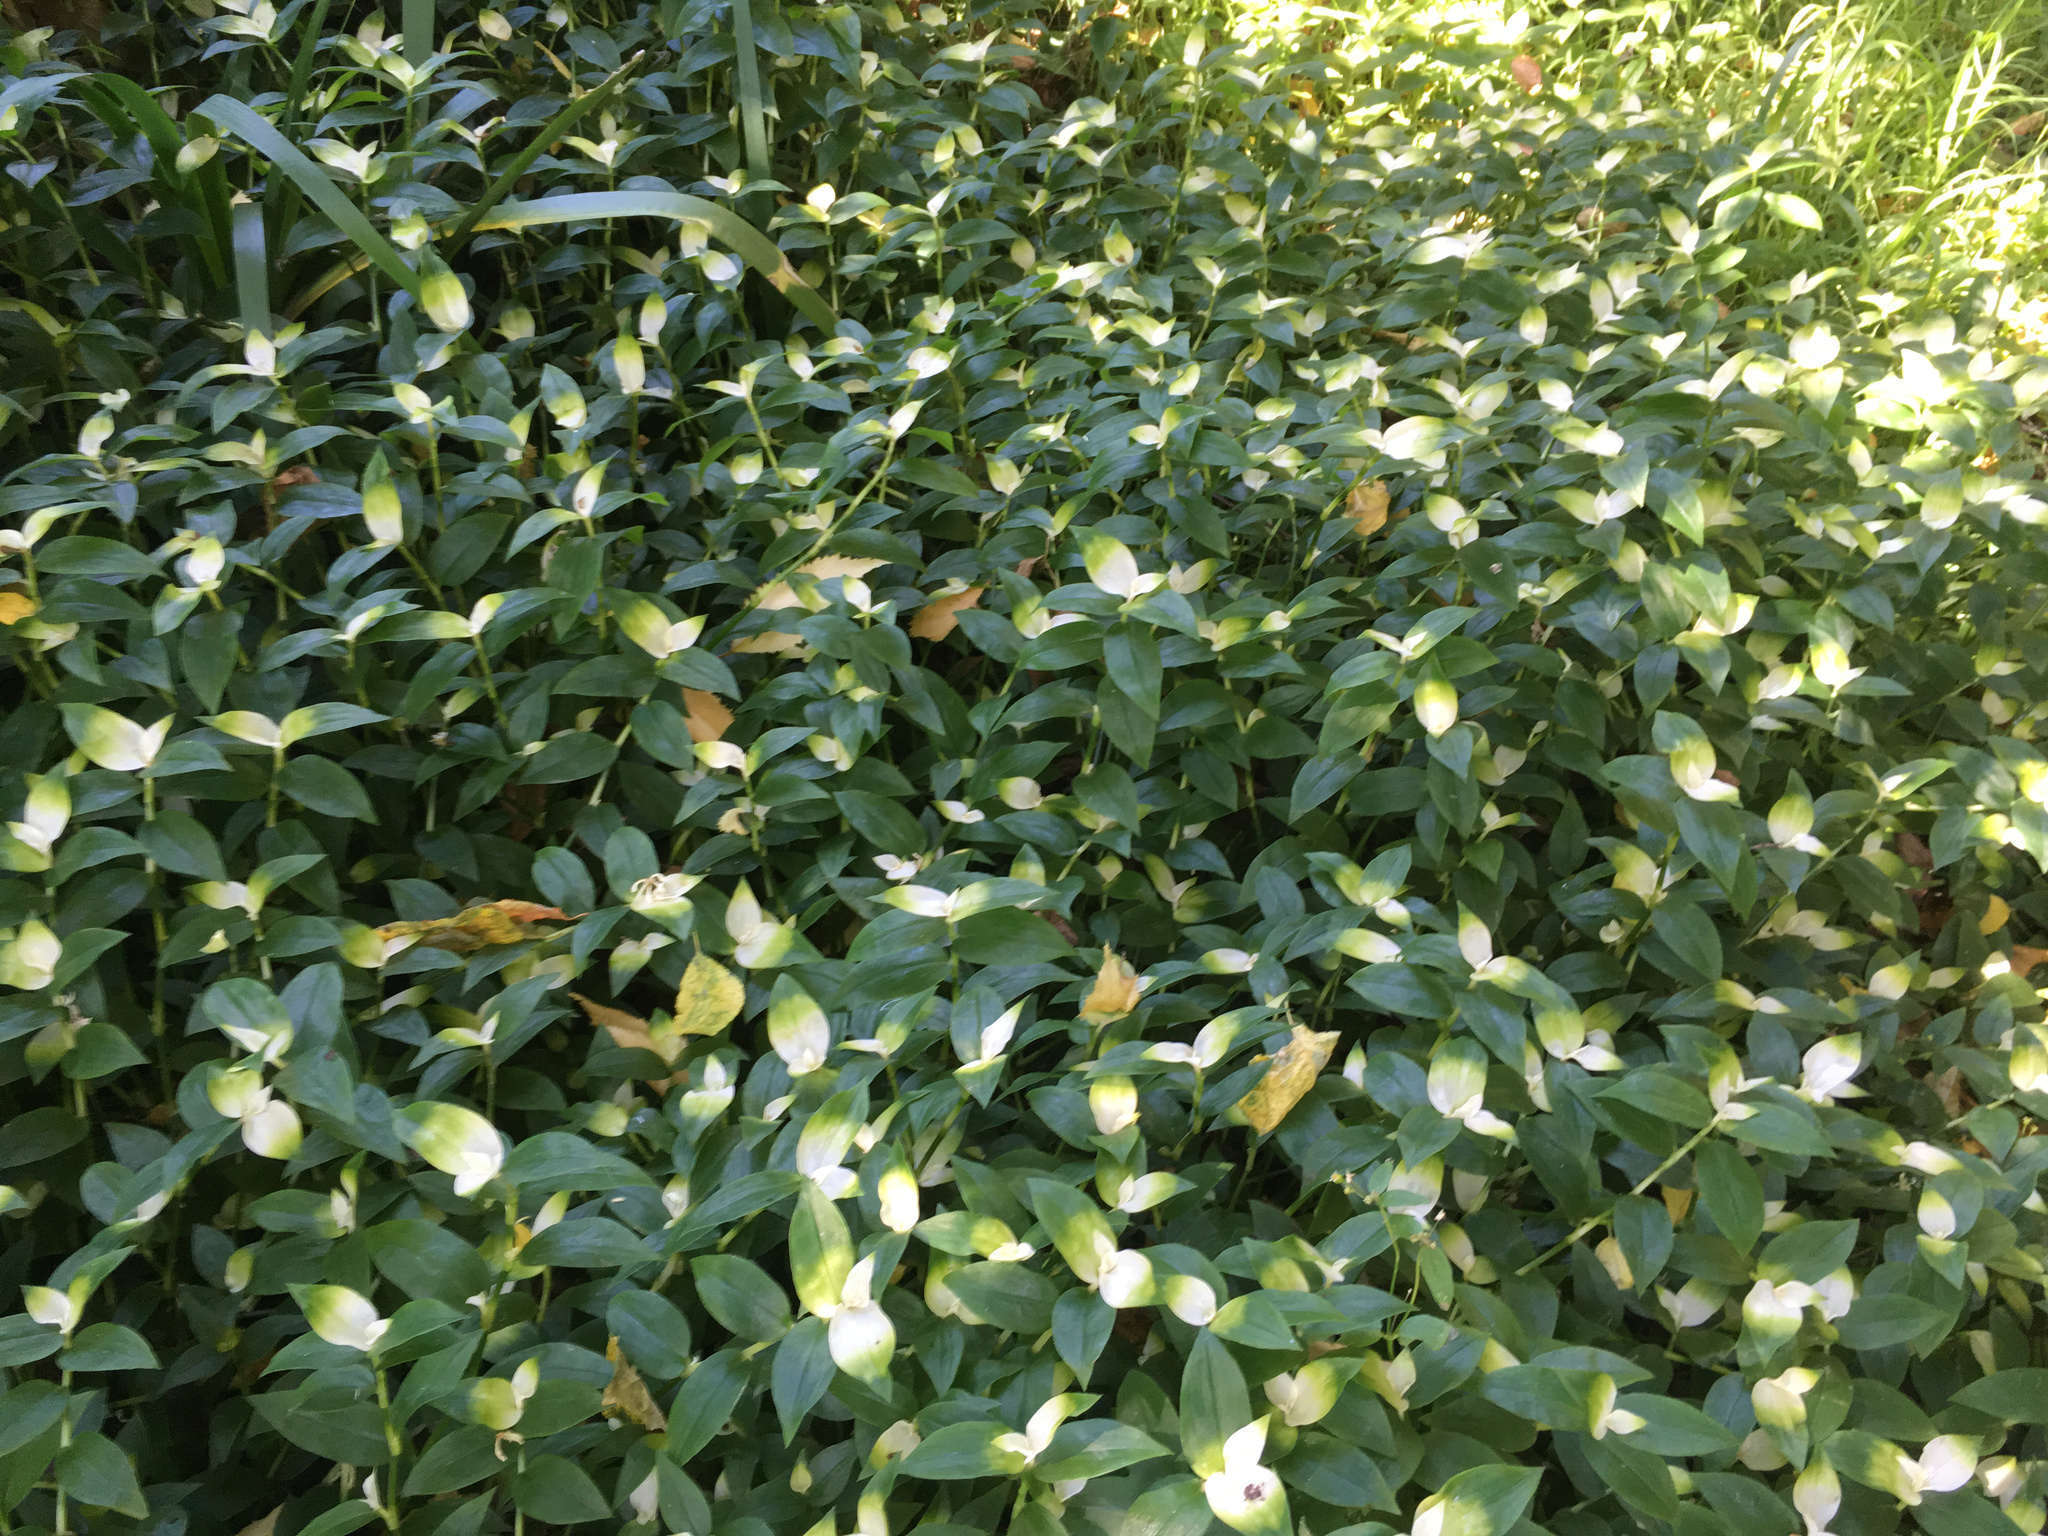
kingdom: Plantae
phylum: Tracheophyta
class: Liliopsida
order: Commelinales
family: Commelinaceae
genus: Tradescantia
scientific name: Tradescantia fluminensis
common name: Wandering-jew
